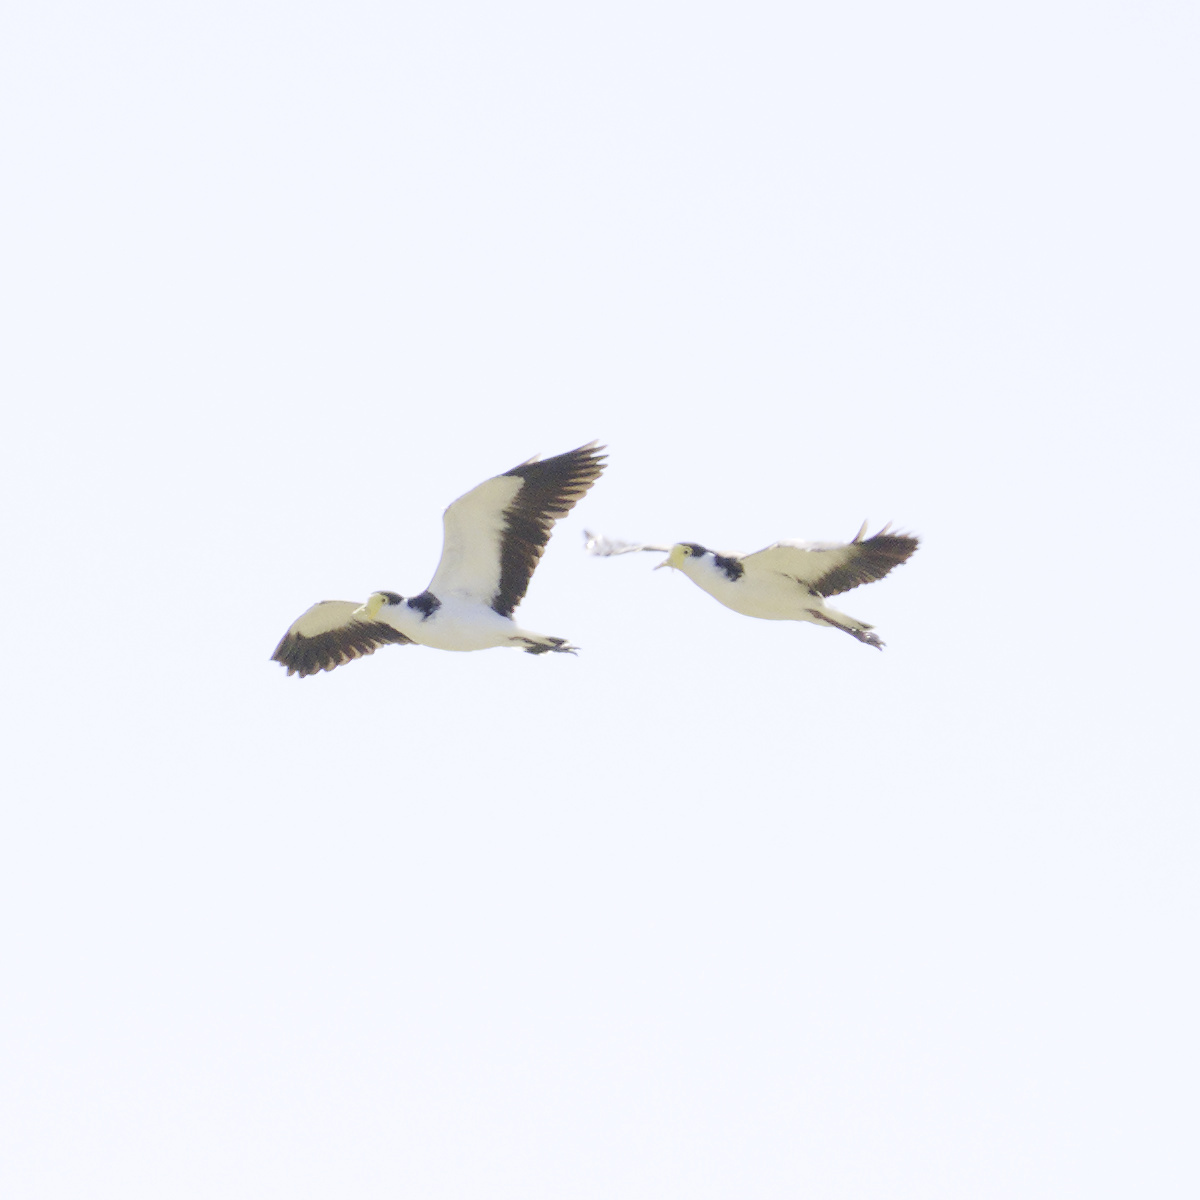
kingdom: Animalia
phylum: Chordata
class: Aves
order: Charadriiformes
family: Charadriidae
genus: Vanellus
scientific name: Vanellus miles
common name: Masked lapwing
